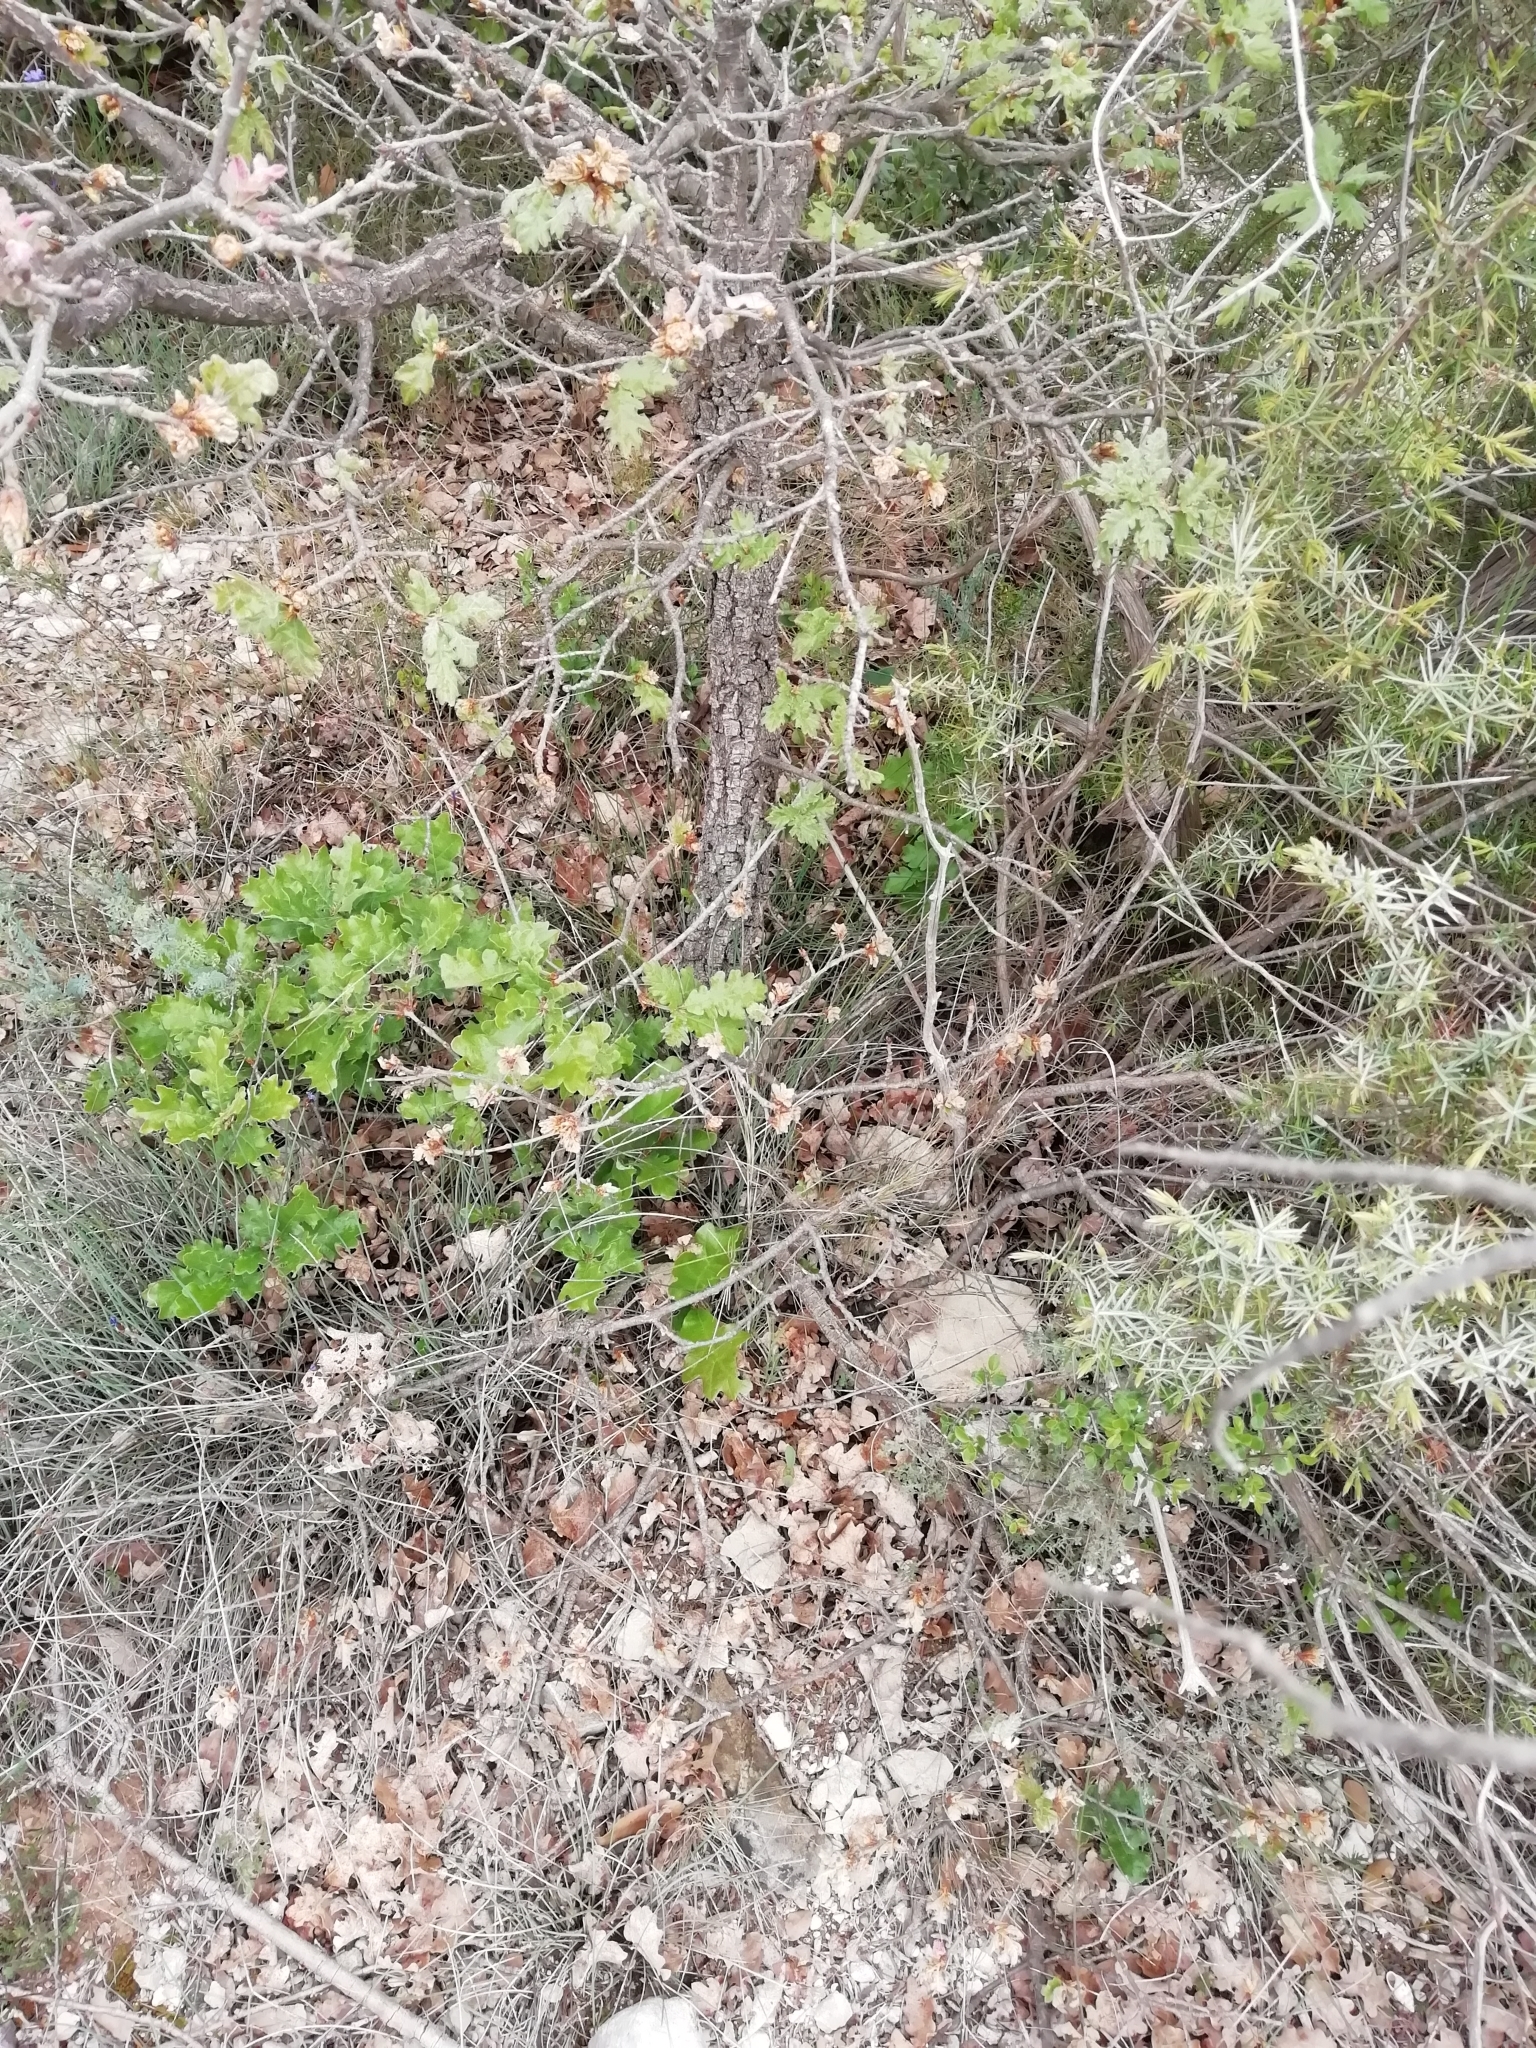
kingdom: Plantae
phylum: Tracheophyta
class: Magnoliopsida
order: Fagales
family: Fagaceae
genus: Quercus
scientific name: Quercus pubescens
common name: Downy oak
